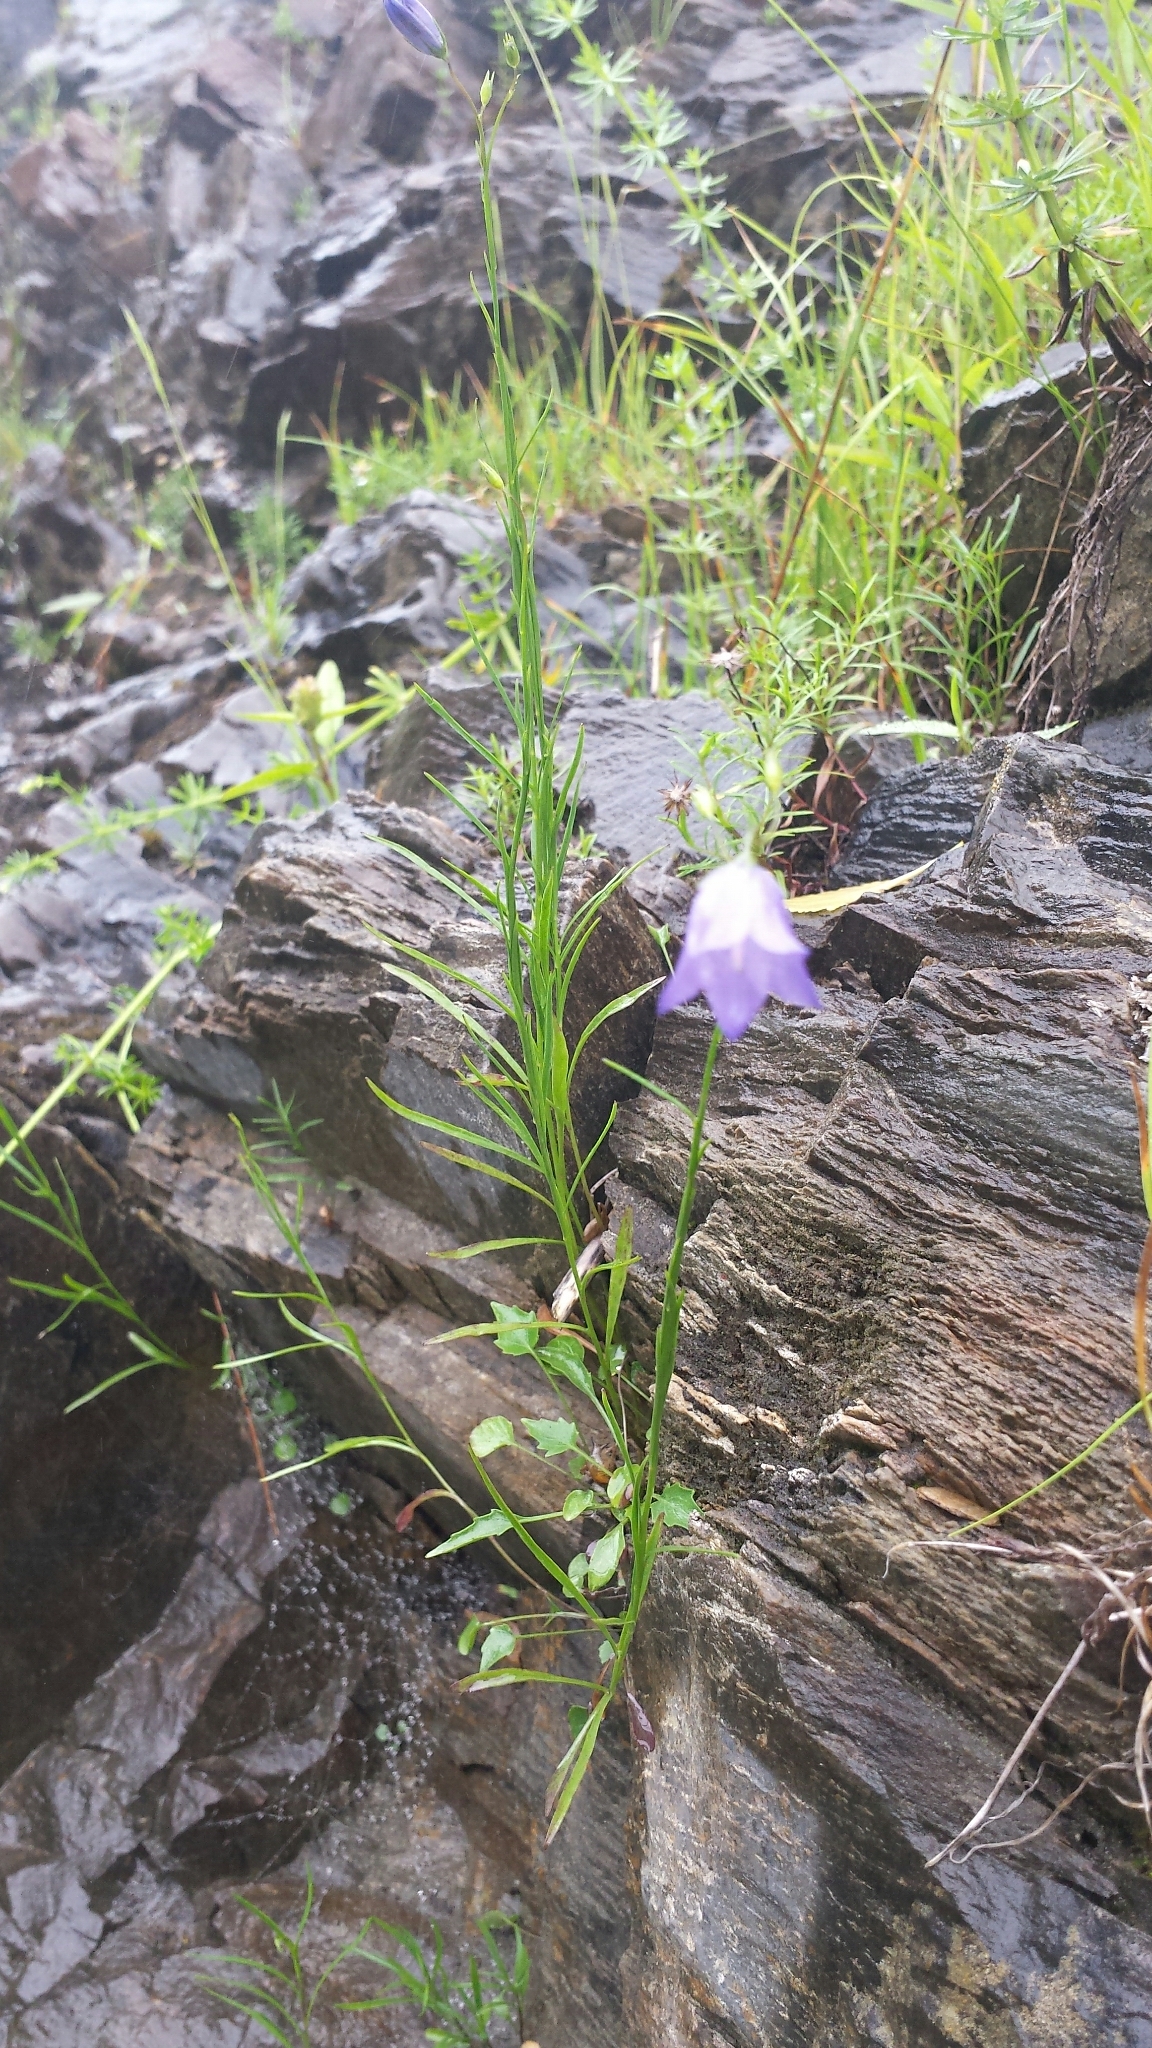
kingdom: Plantae
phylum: Tracheophyta
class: Magnoliopsida
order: Asterales
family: Campanulaceae
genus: Campanula
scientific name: Campanula intercedens
